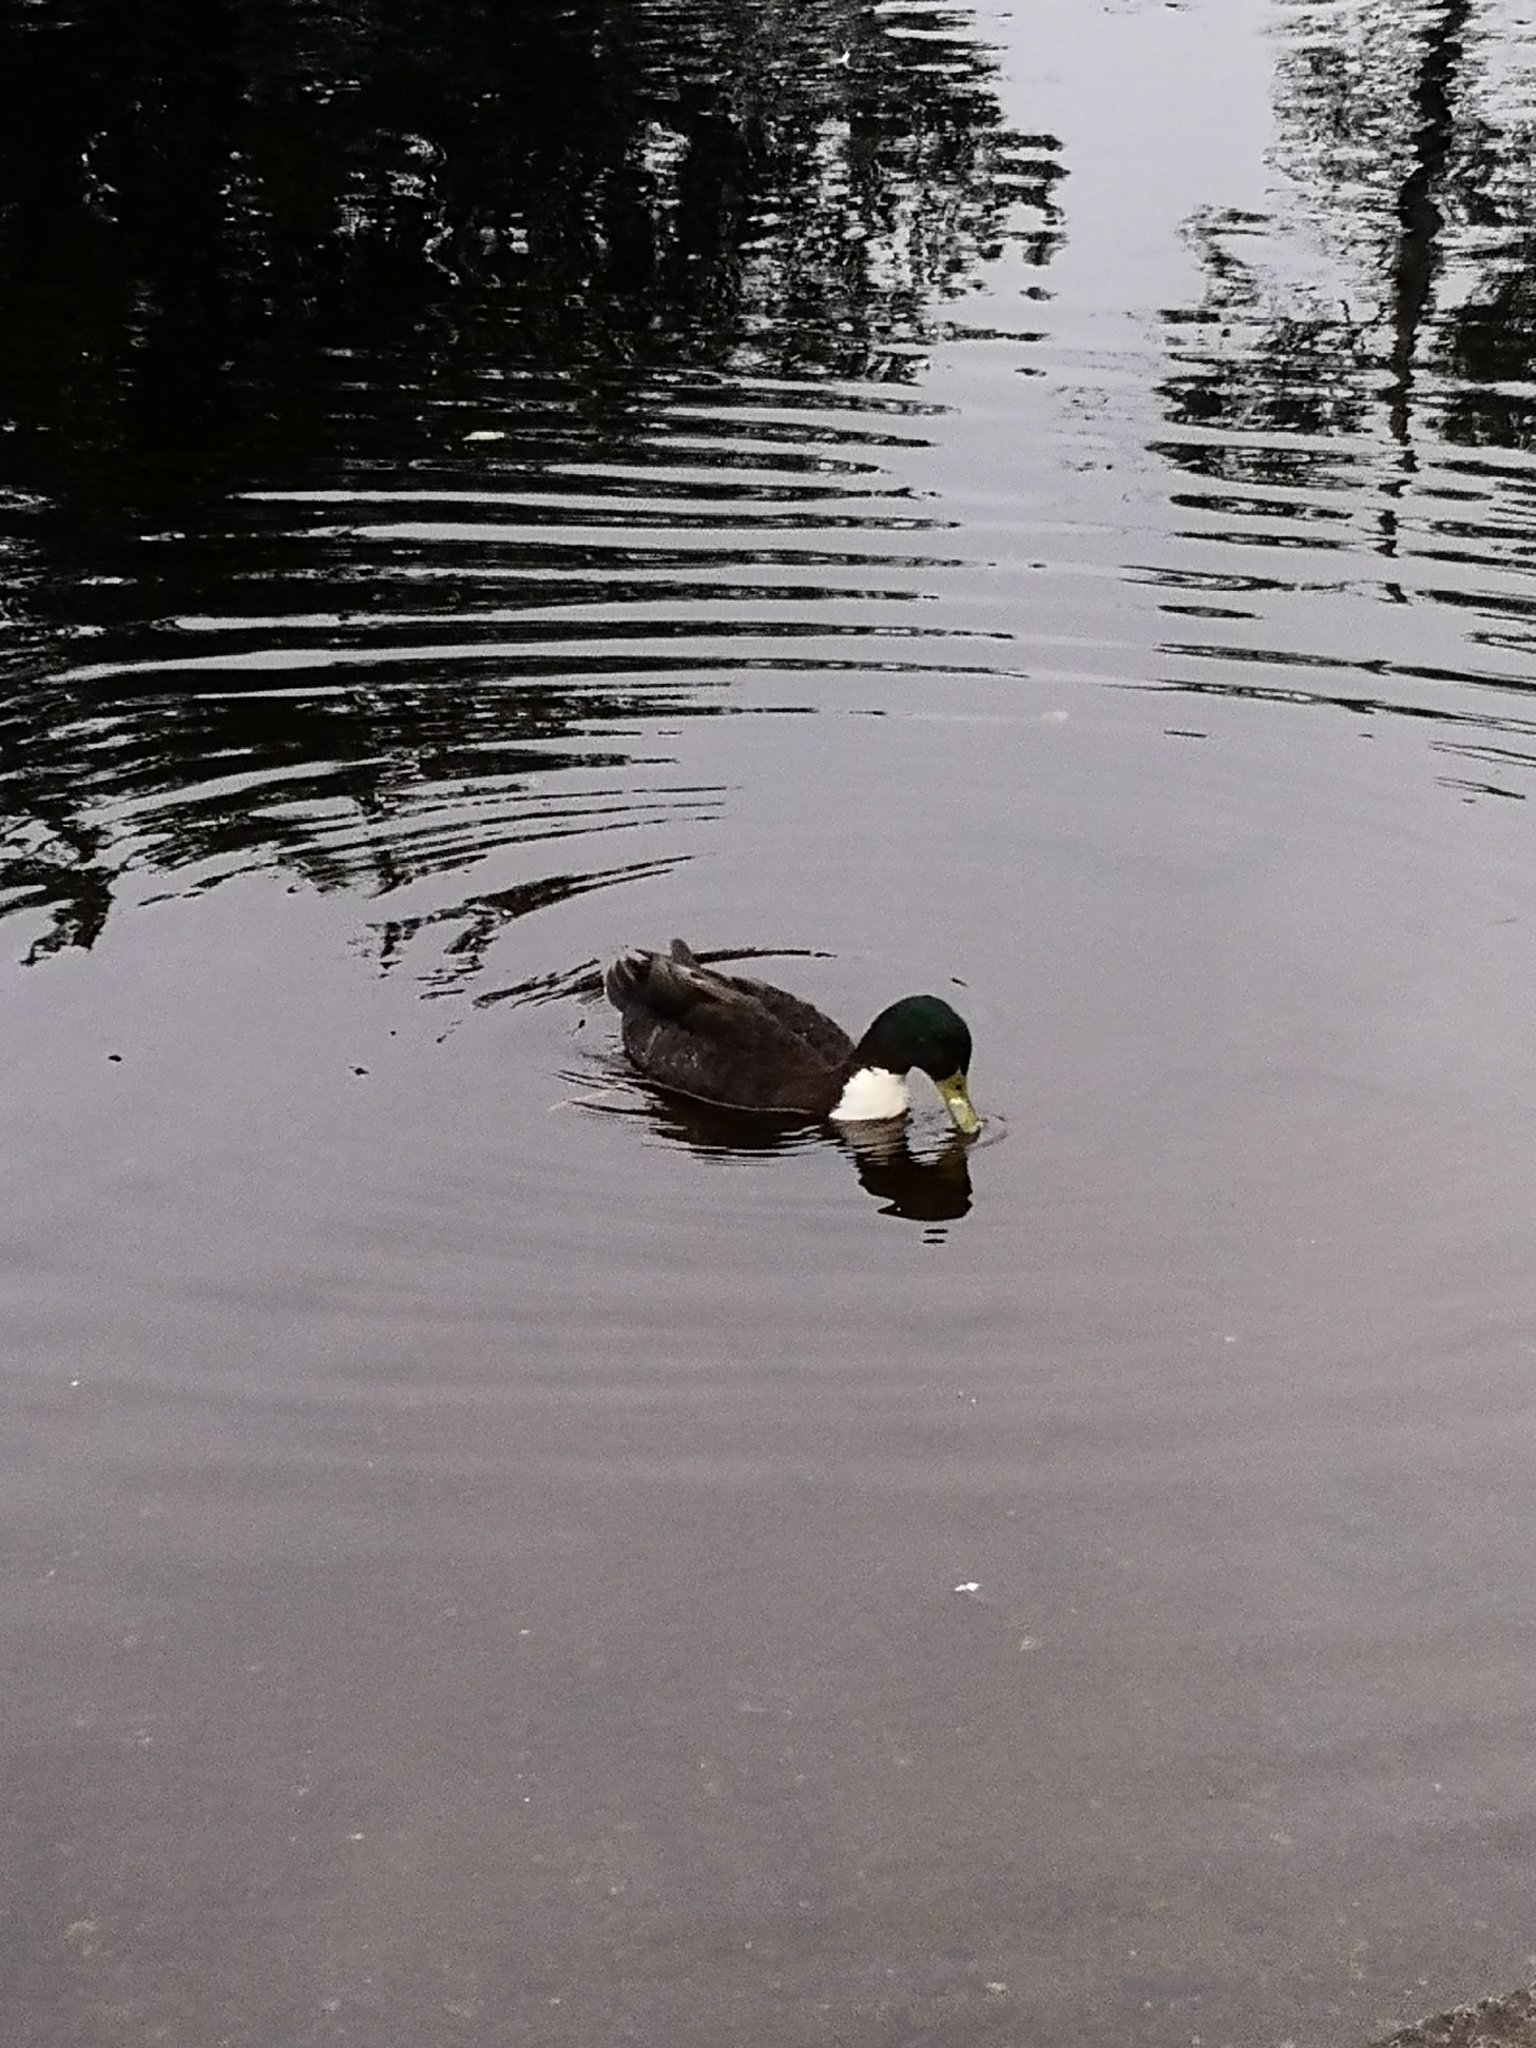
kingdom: Animalia
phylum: Chordata
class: Aves
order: Anseriformes
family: Anatidae
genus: Anas
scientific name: Anas platyrhynchos
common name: Mallard
